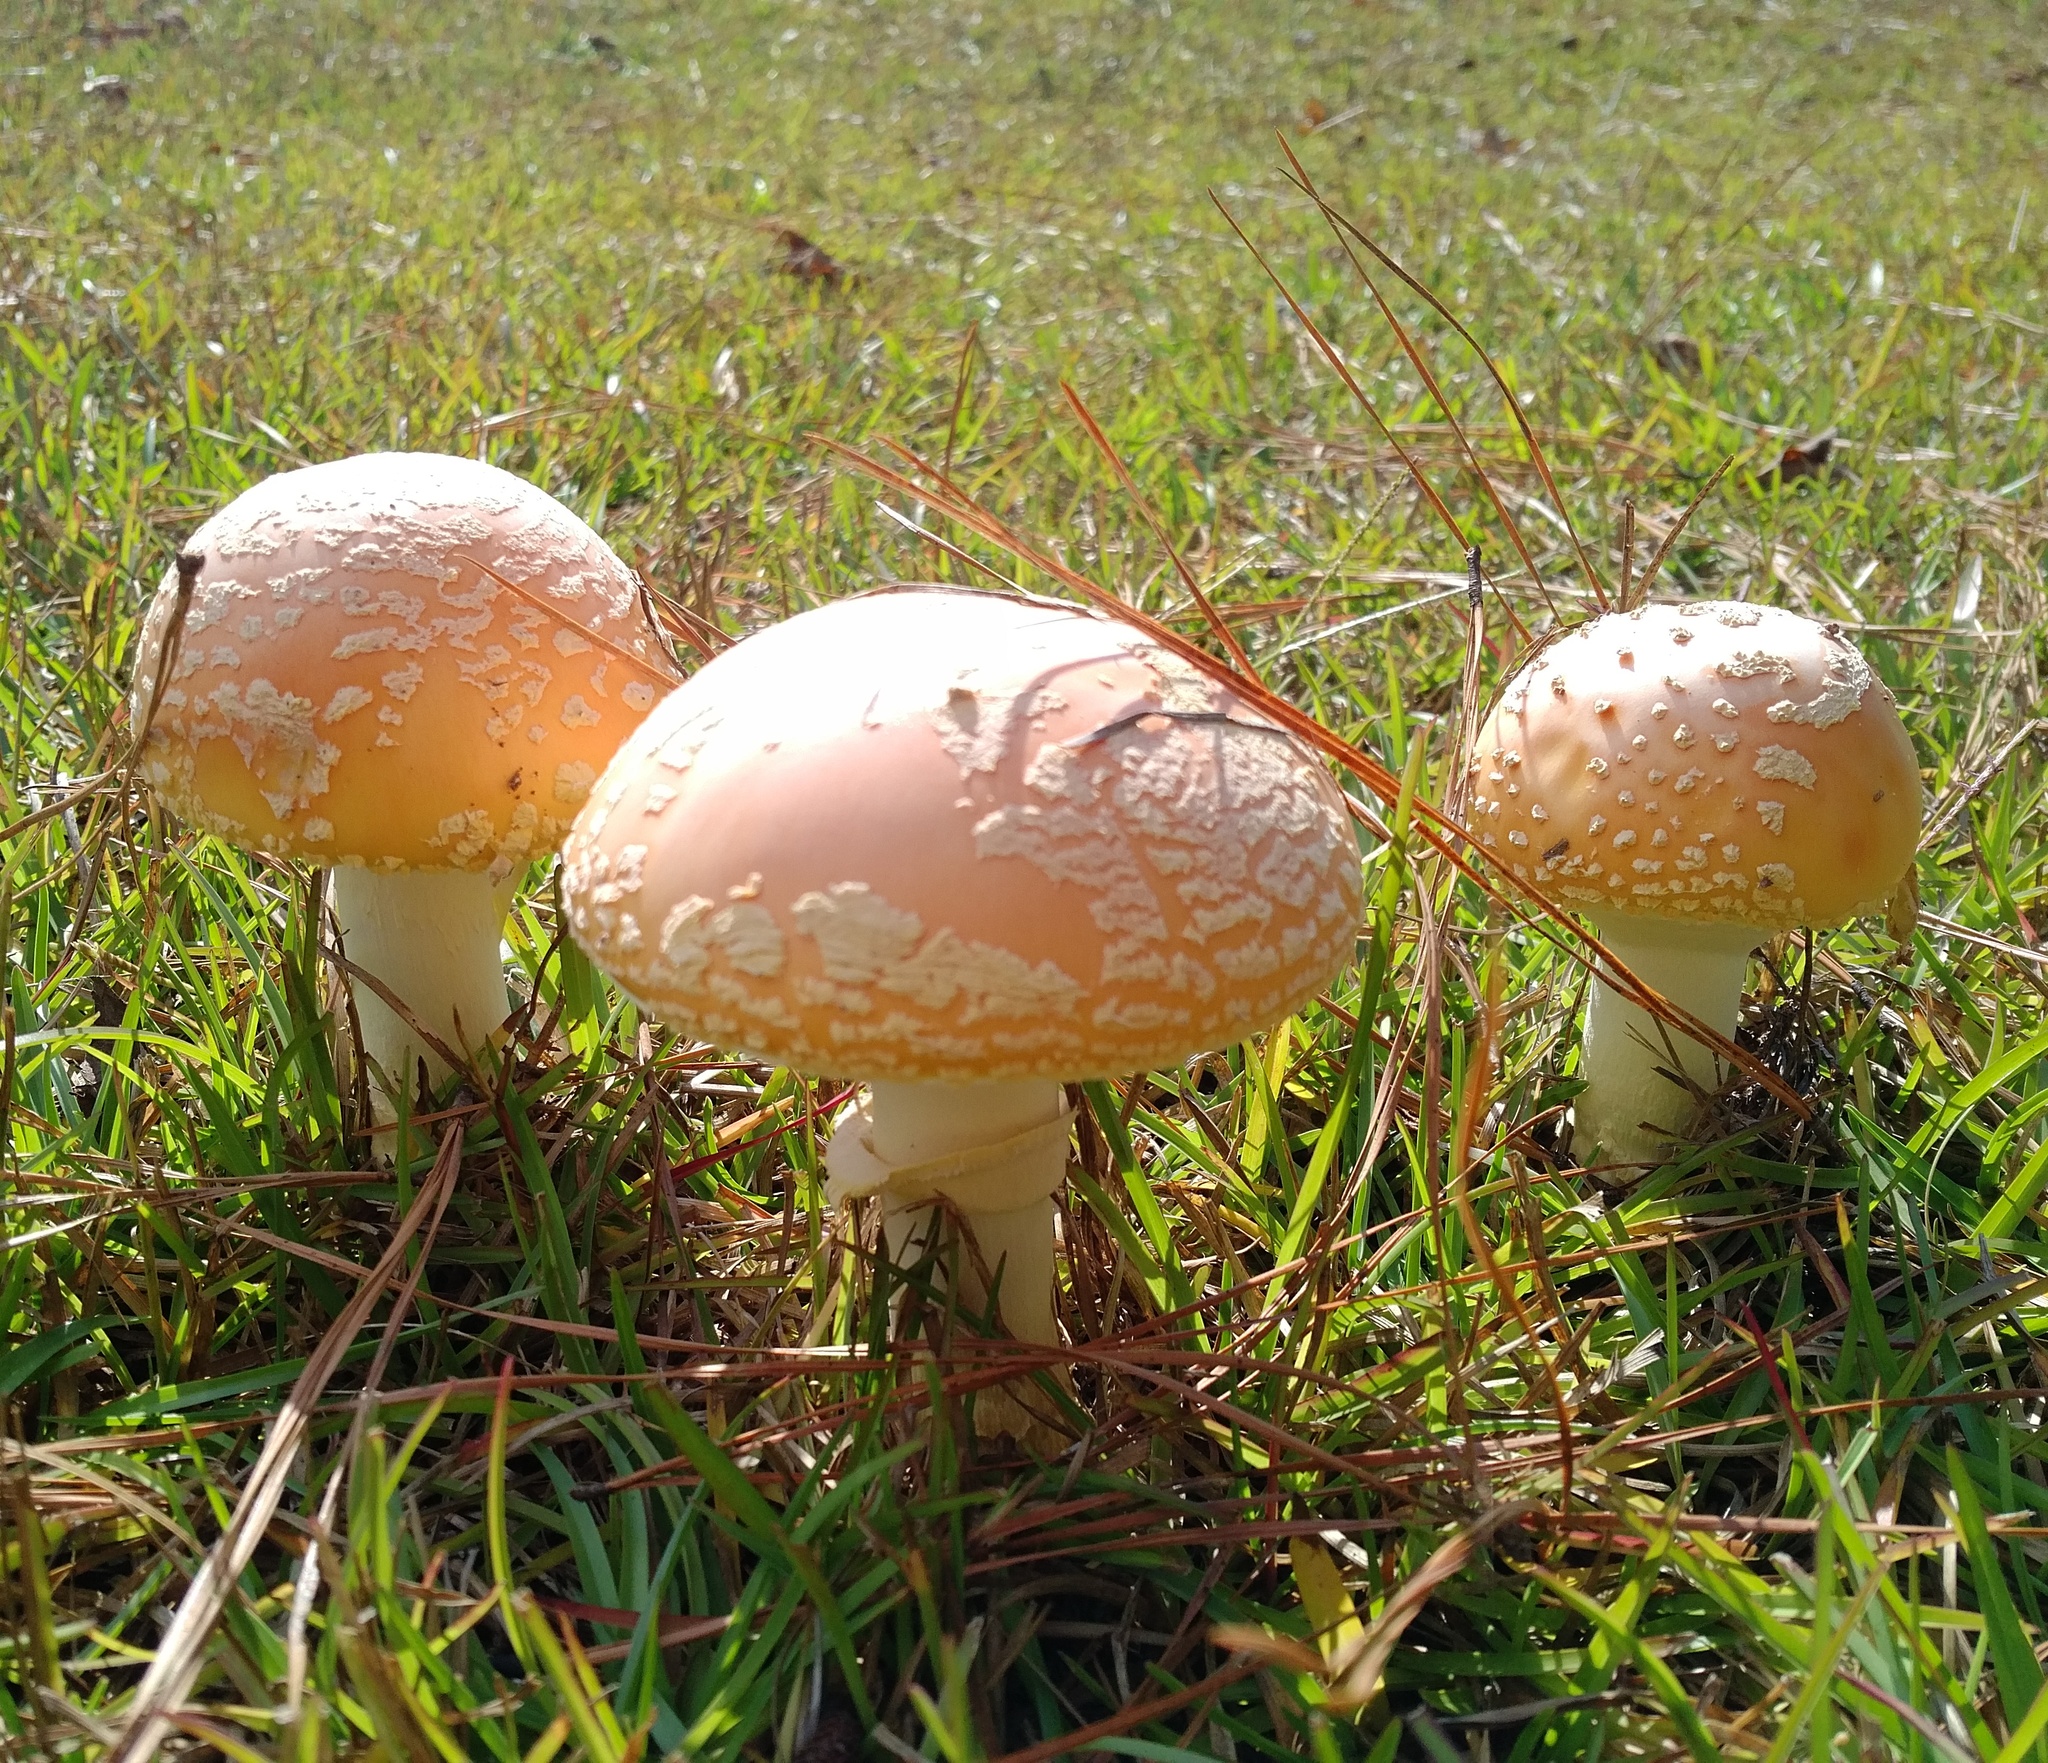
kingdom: Fungi
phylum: Basidiomycota
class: Agaricomycetes
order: Agaricales
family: Amanitaceae
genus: Amanita
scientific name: Amanita persicina
